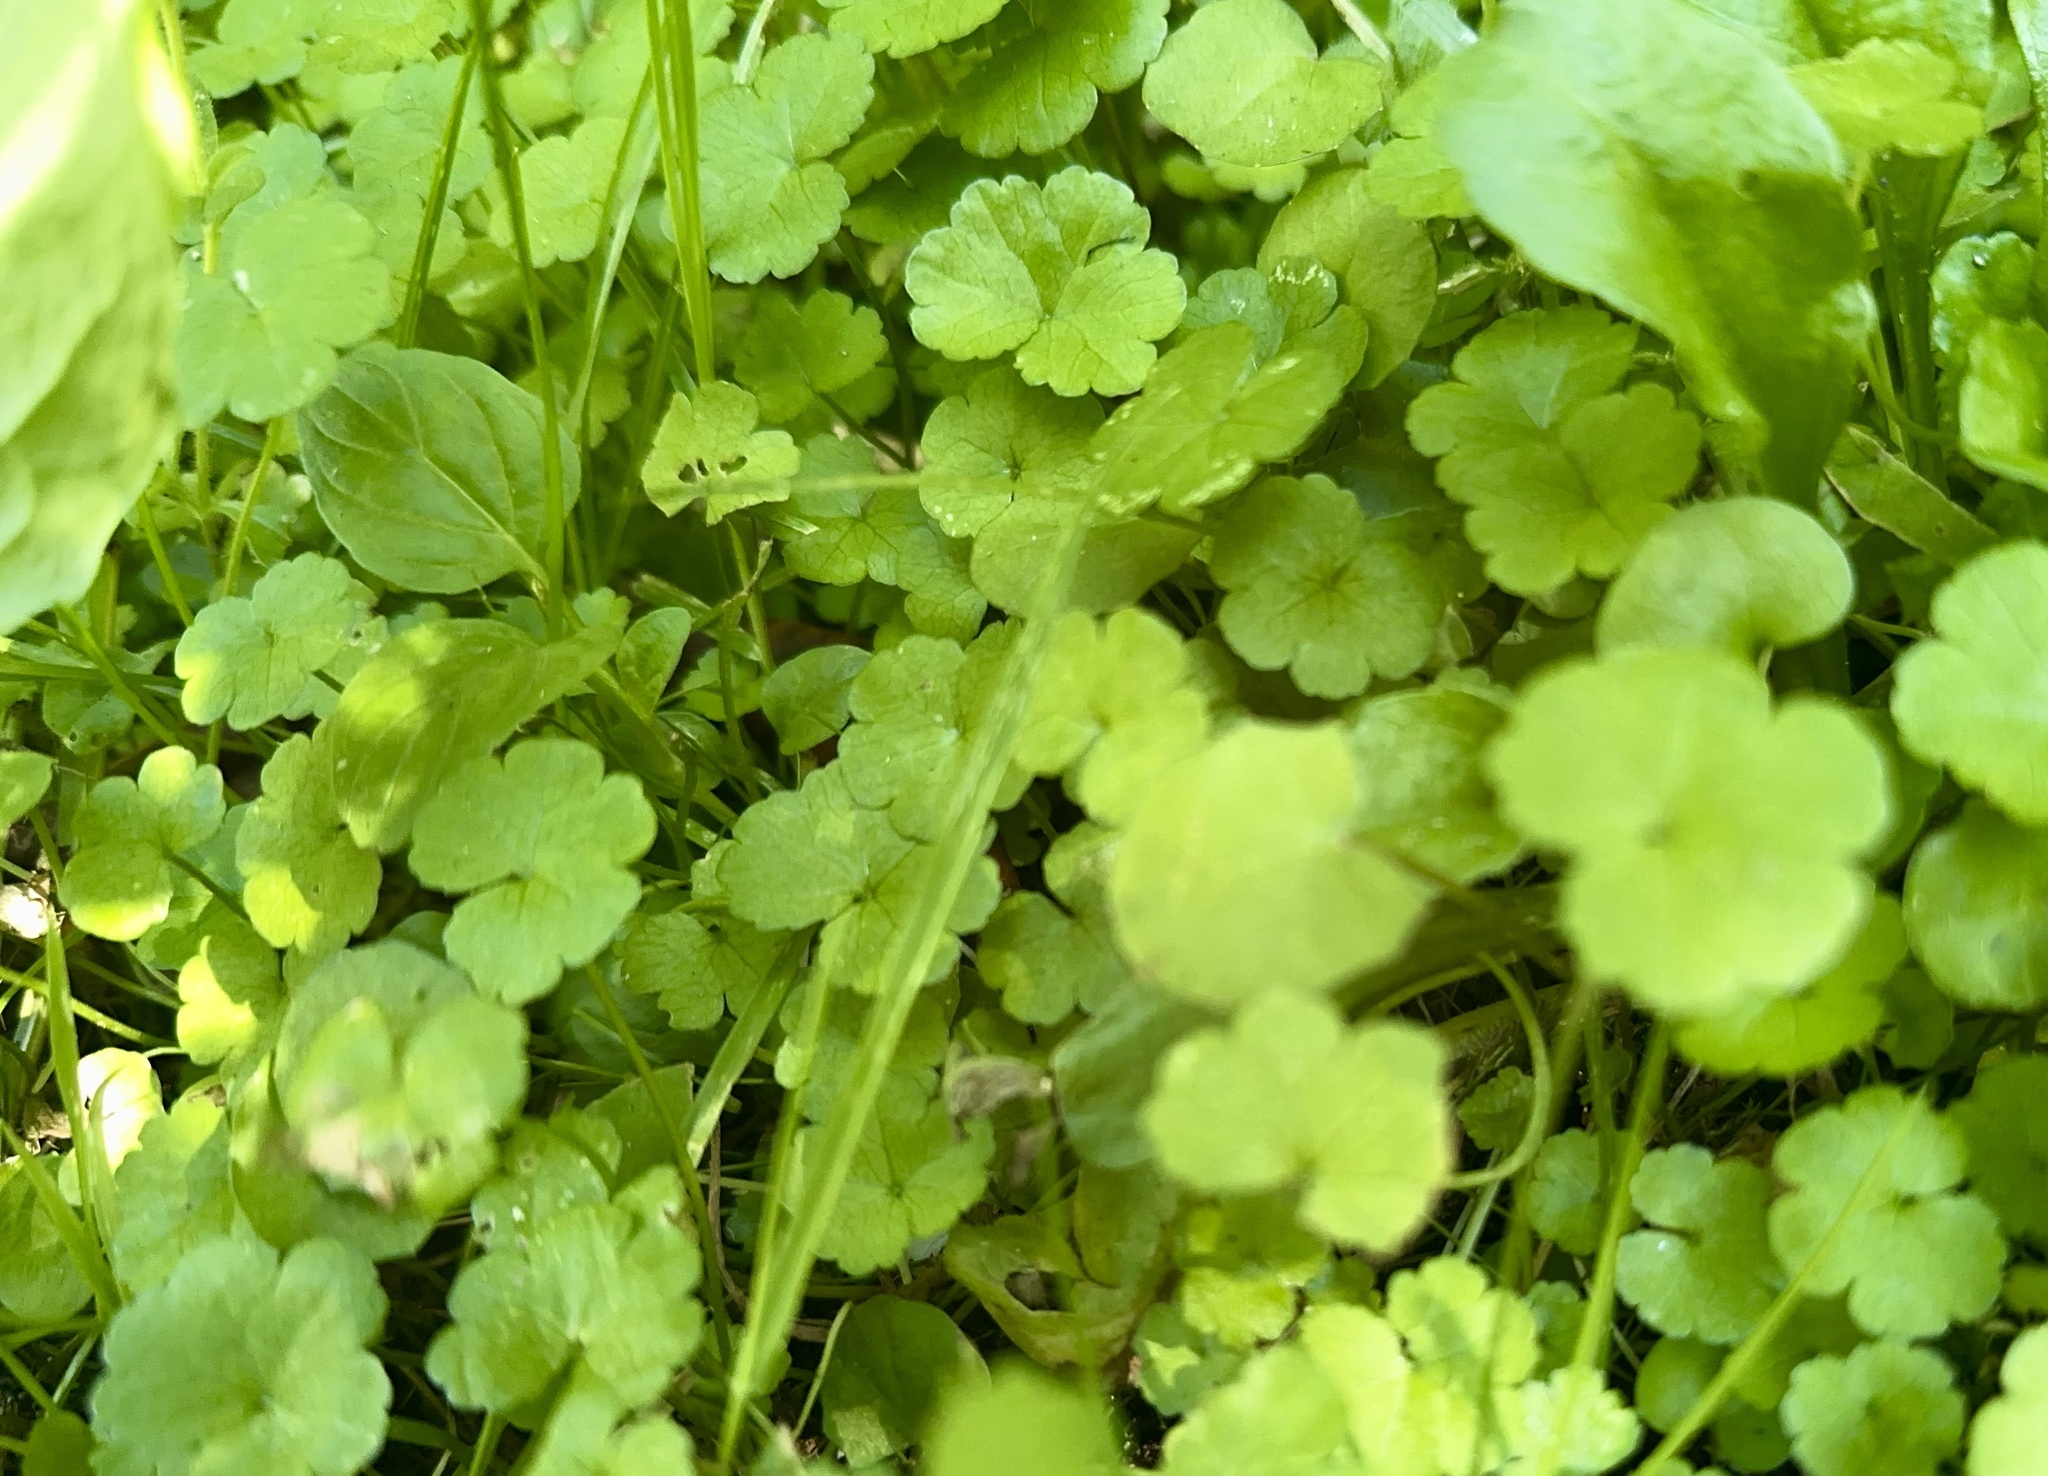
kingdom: Plantae
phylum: Tracheophyta
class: Magnoliopsida
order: Apiales
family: Araliaceae
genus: Hydrocotyle
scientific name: Hydrocotyle heteromeria
